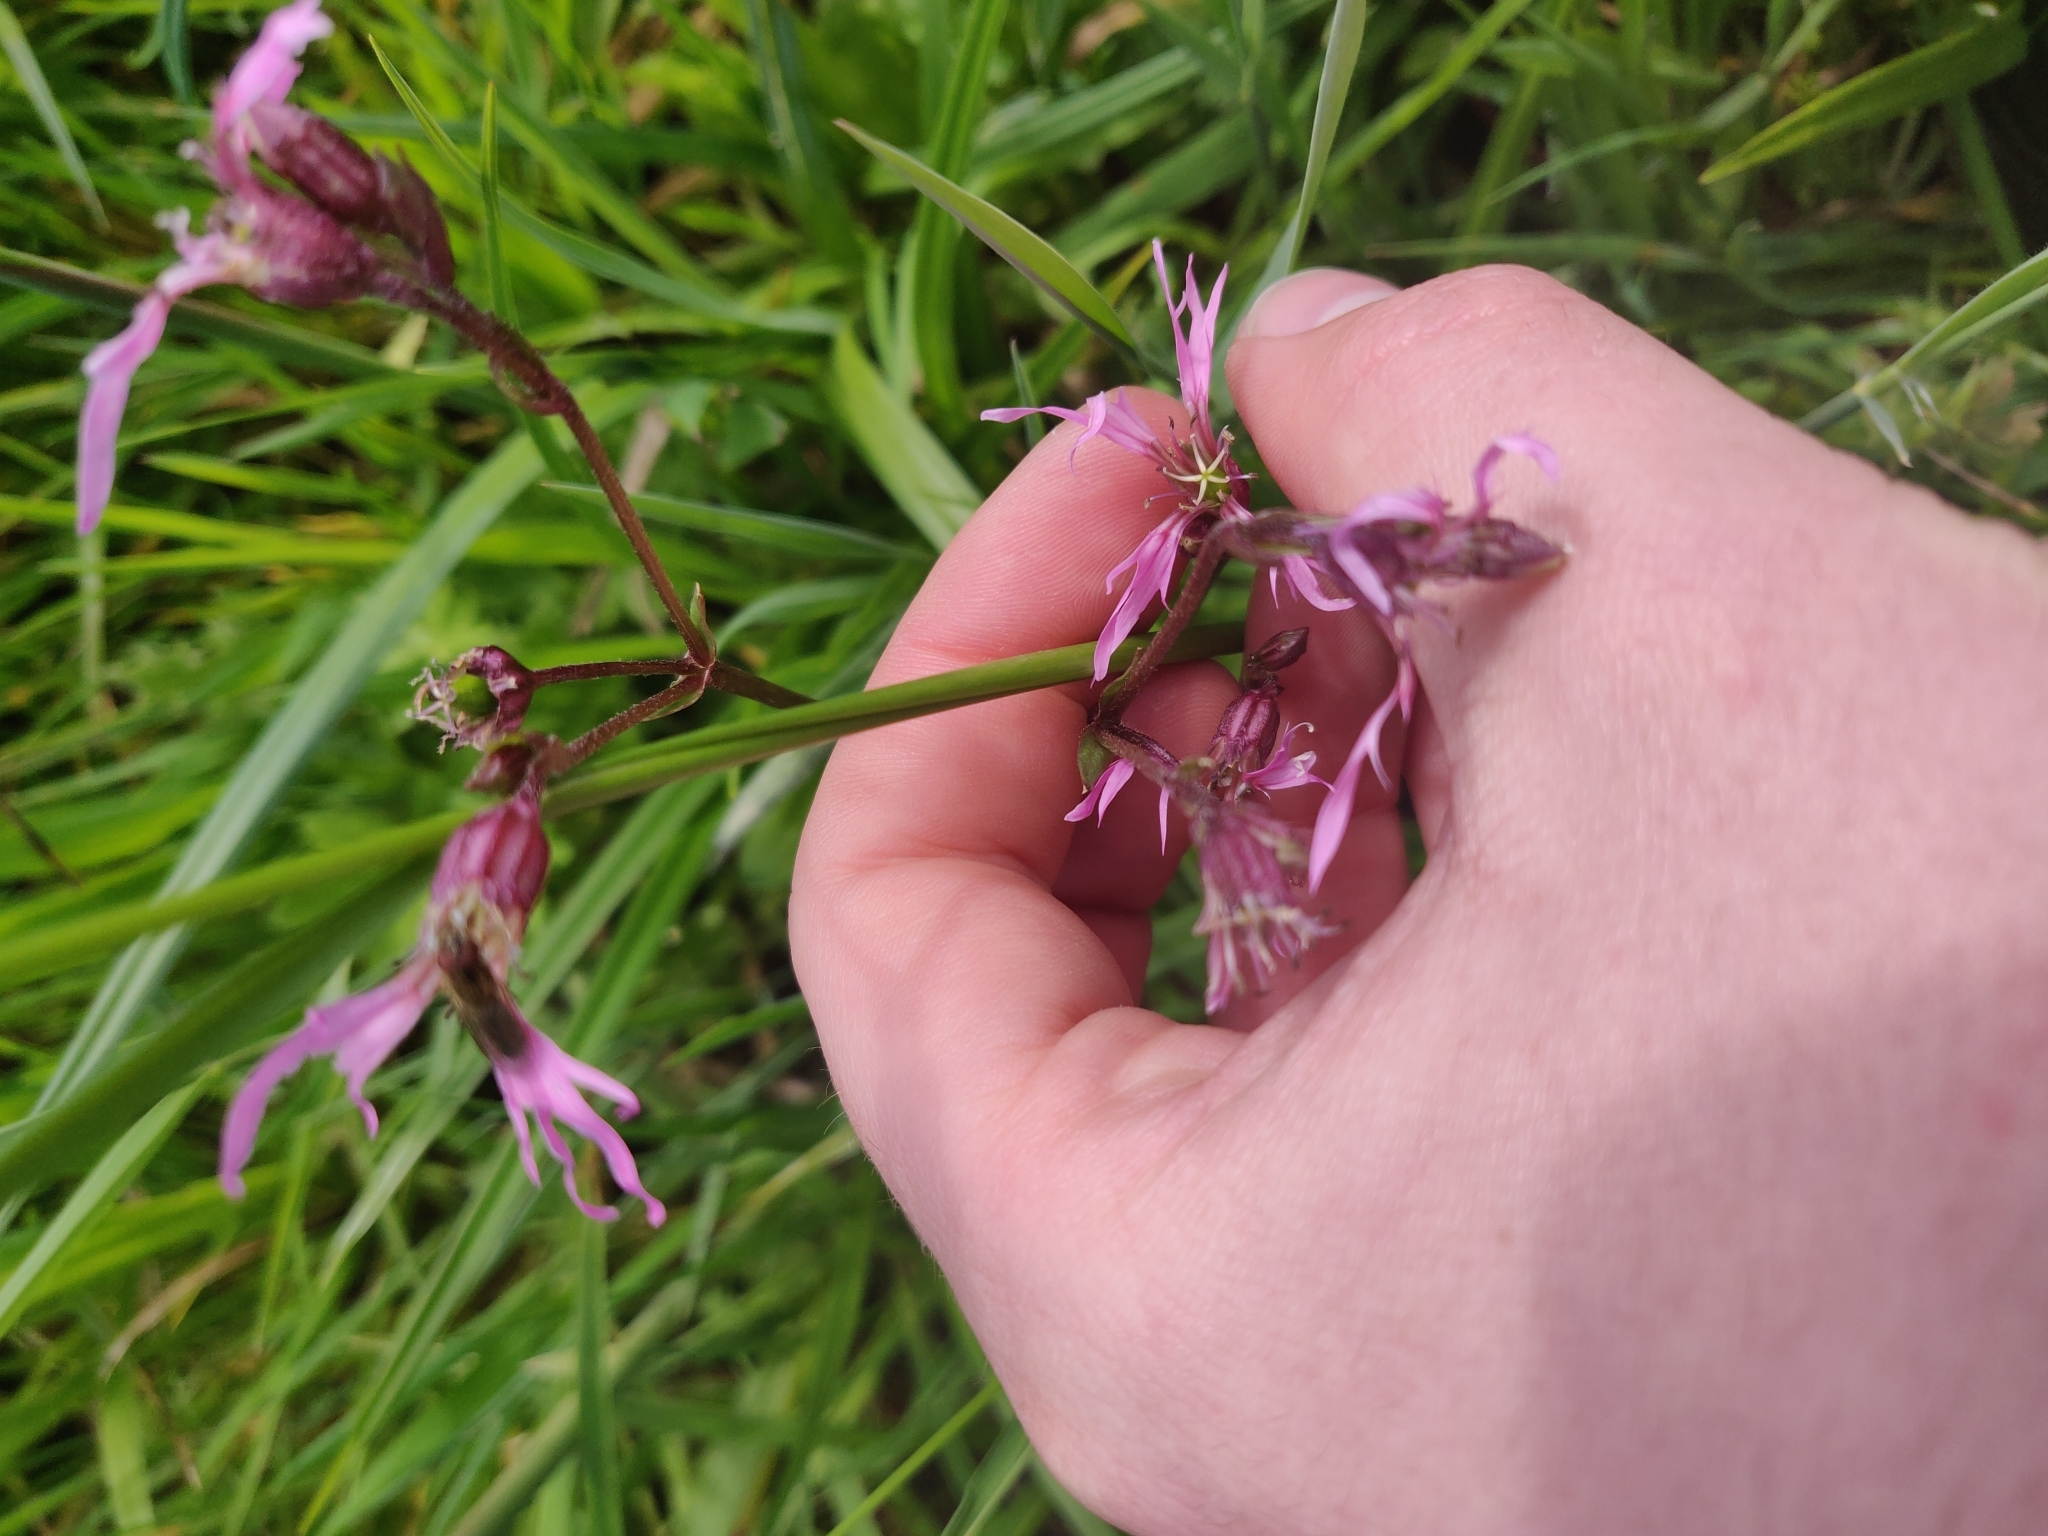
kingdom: Plantae
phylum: Tracheophyta
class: Magnoliopsida
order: Caryophyllales
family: Caryophyllaceae
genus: Silene
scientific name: Silene flos-cuculi
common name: Ragged-robin
